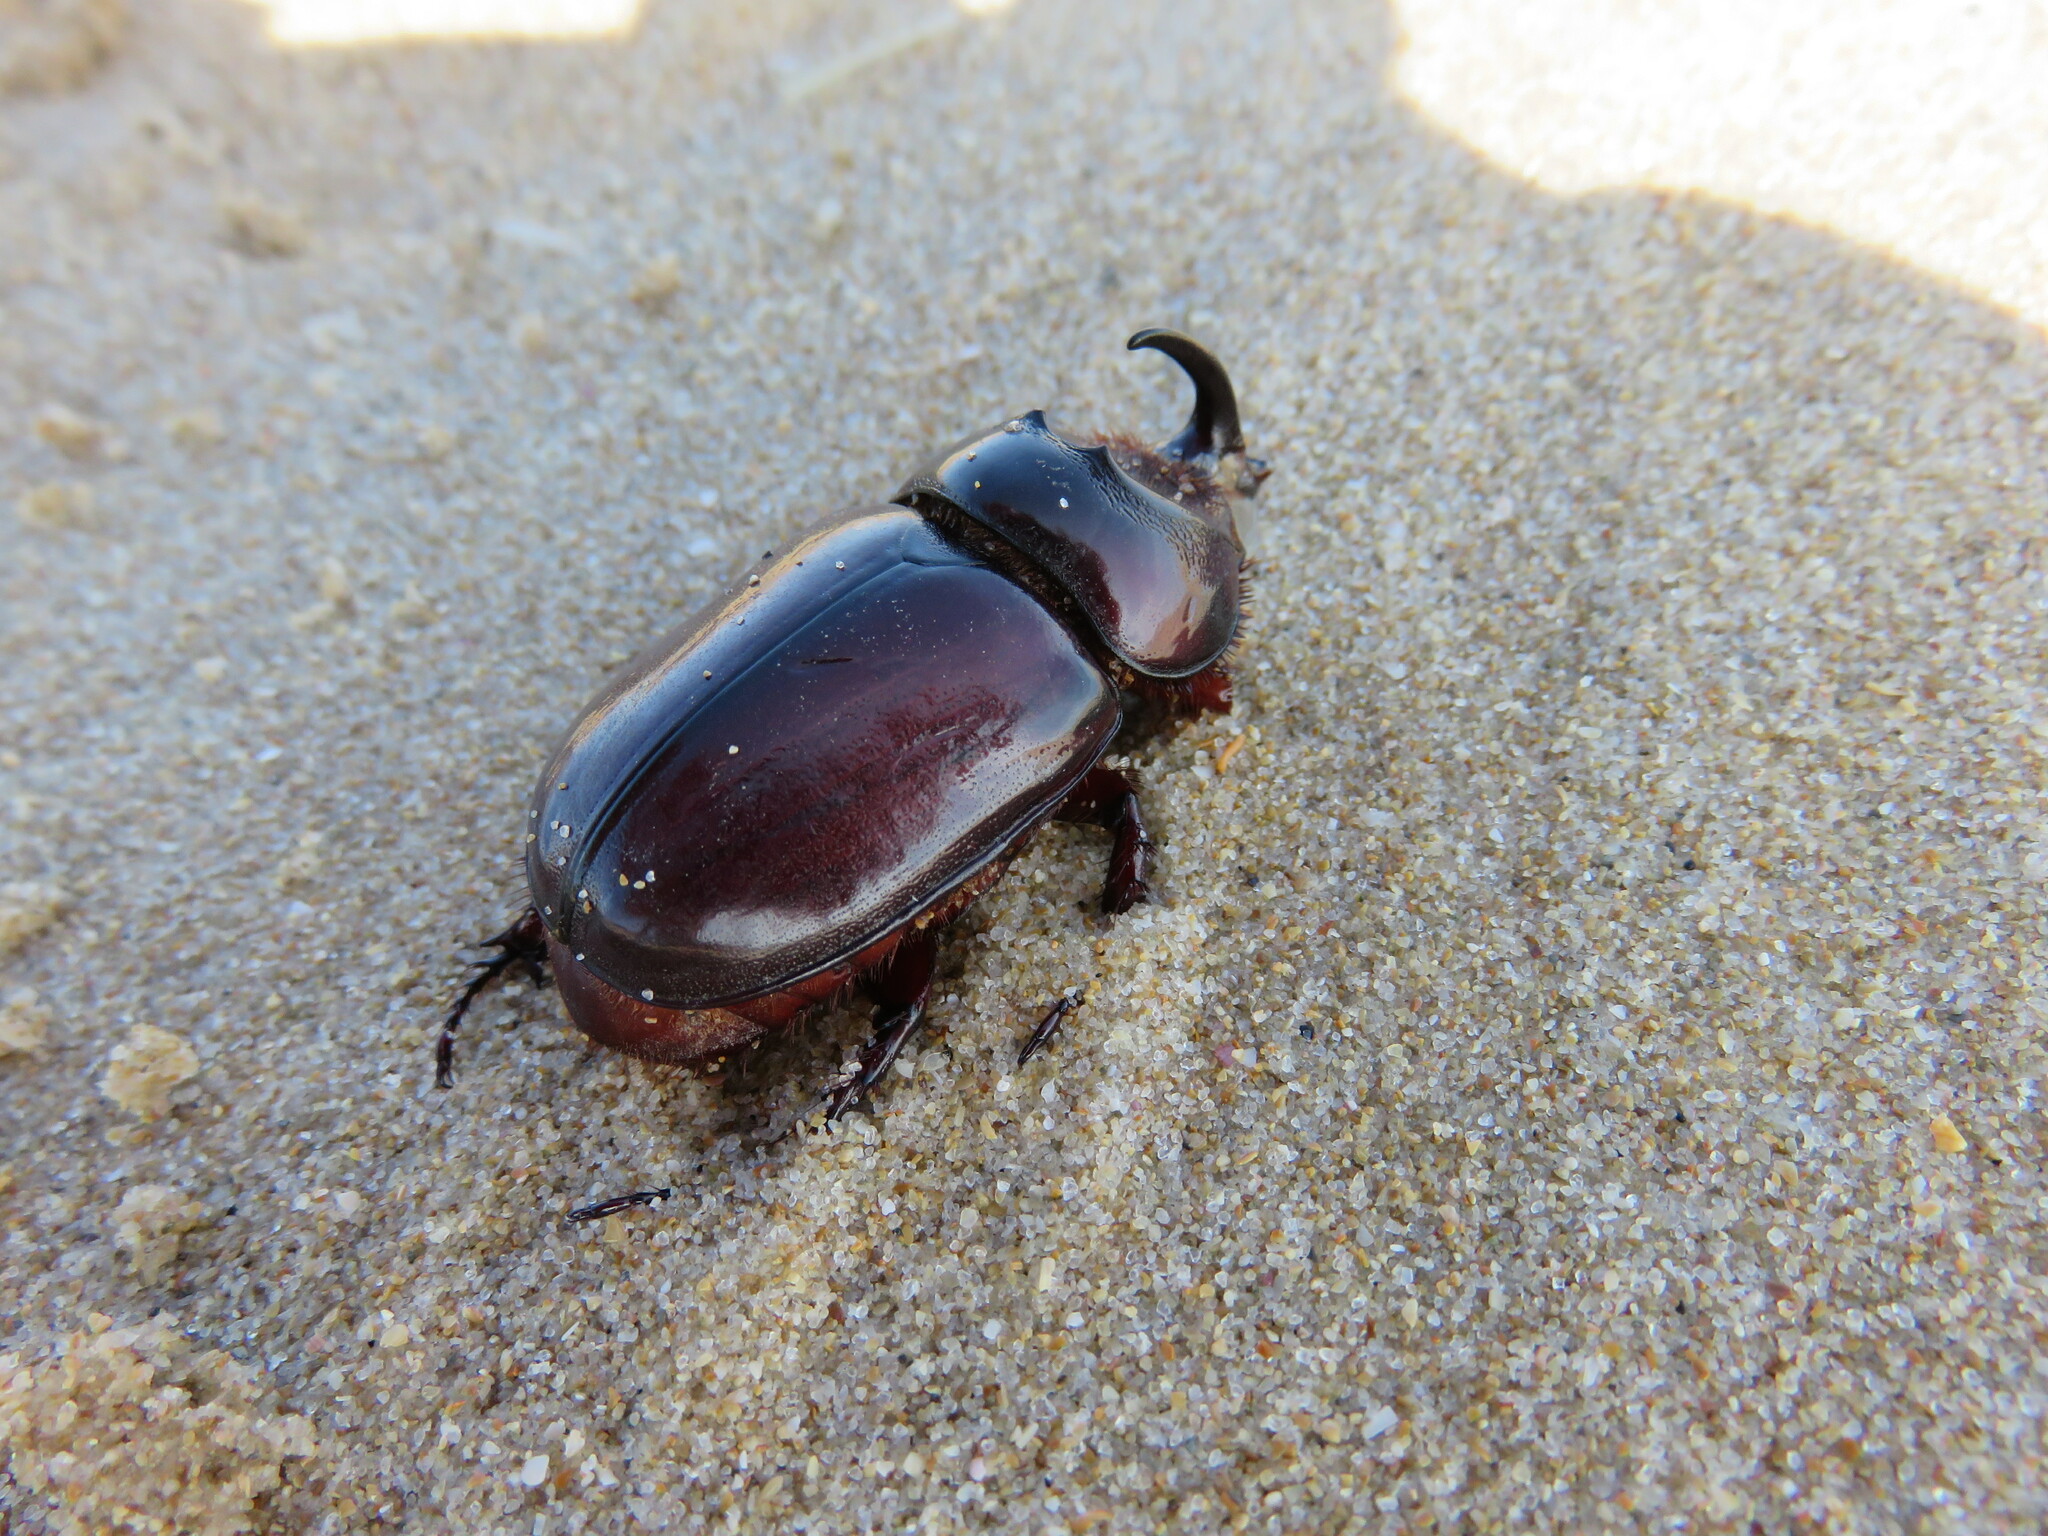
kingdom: Animalia
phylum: Arthropoda
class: Insecta
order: Coleoptera
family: Scarabaeidae
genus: Oryctes
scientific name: Oryctes boas
